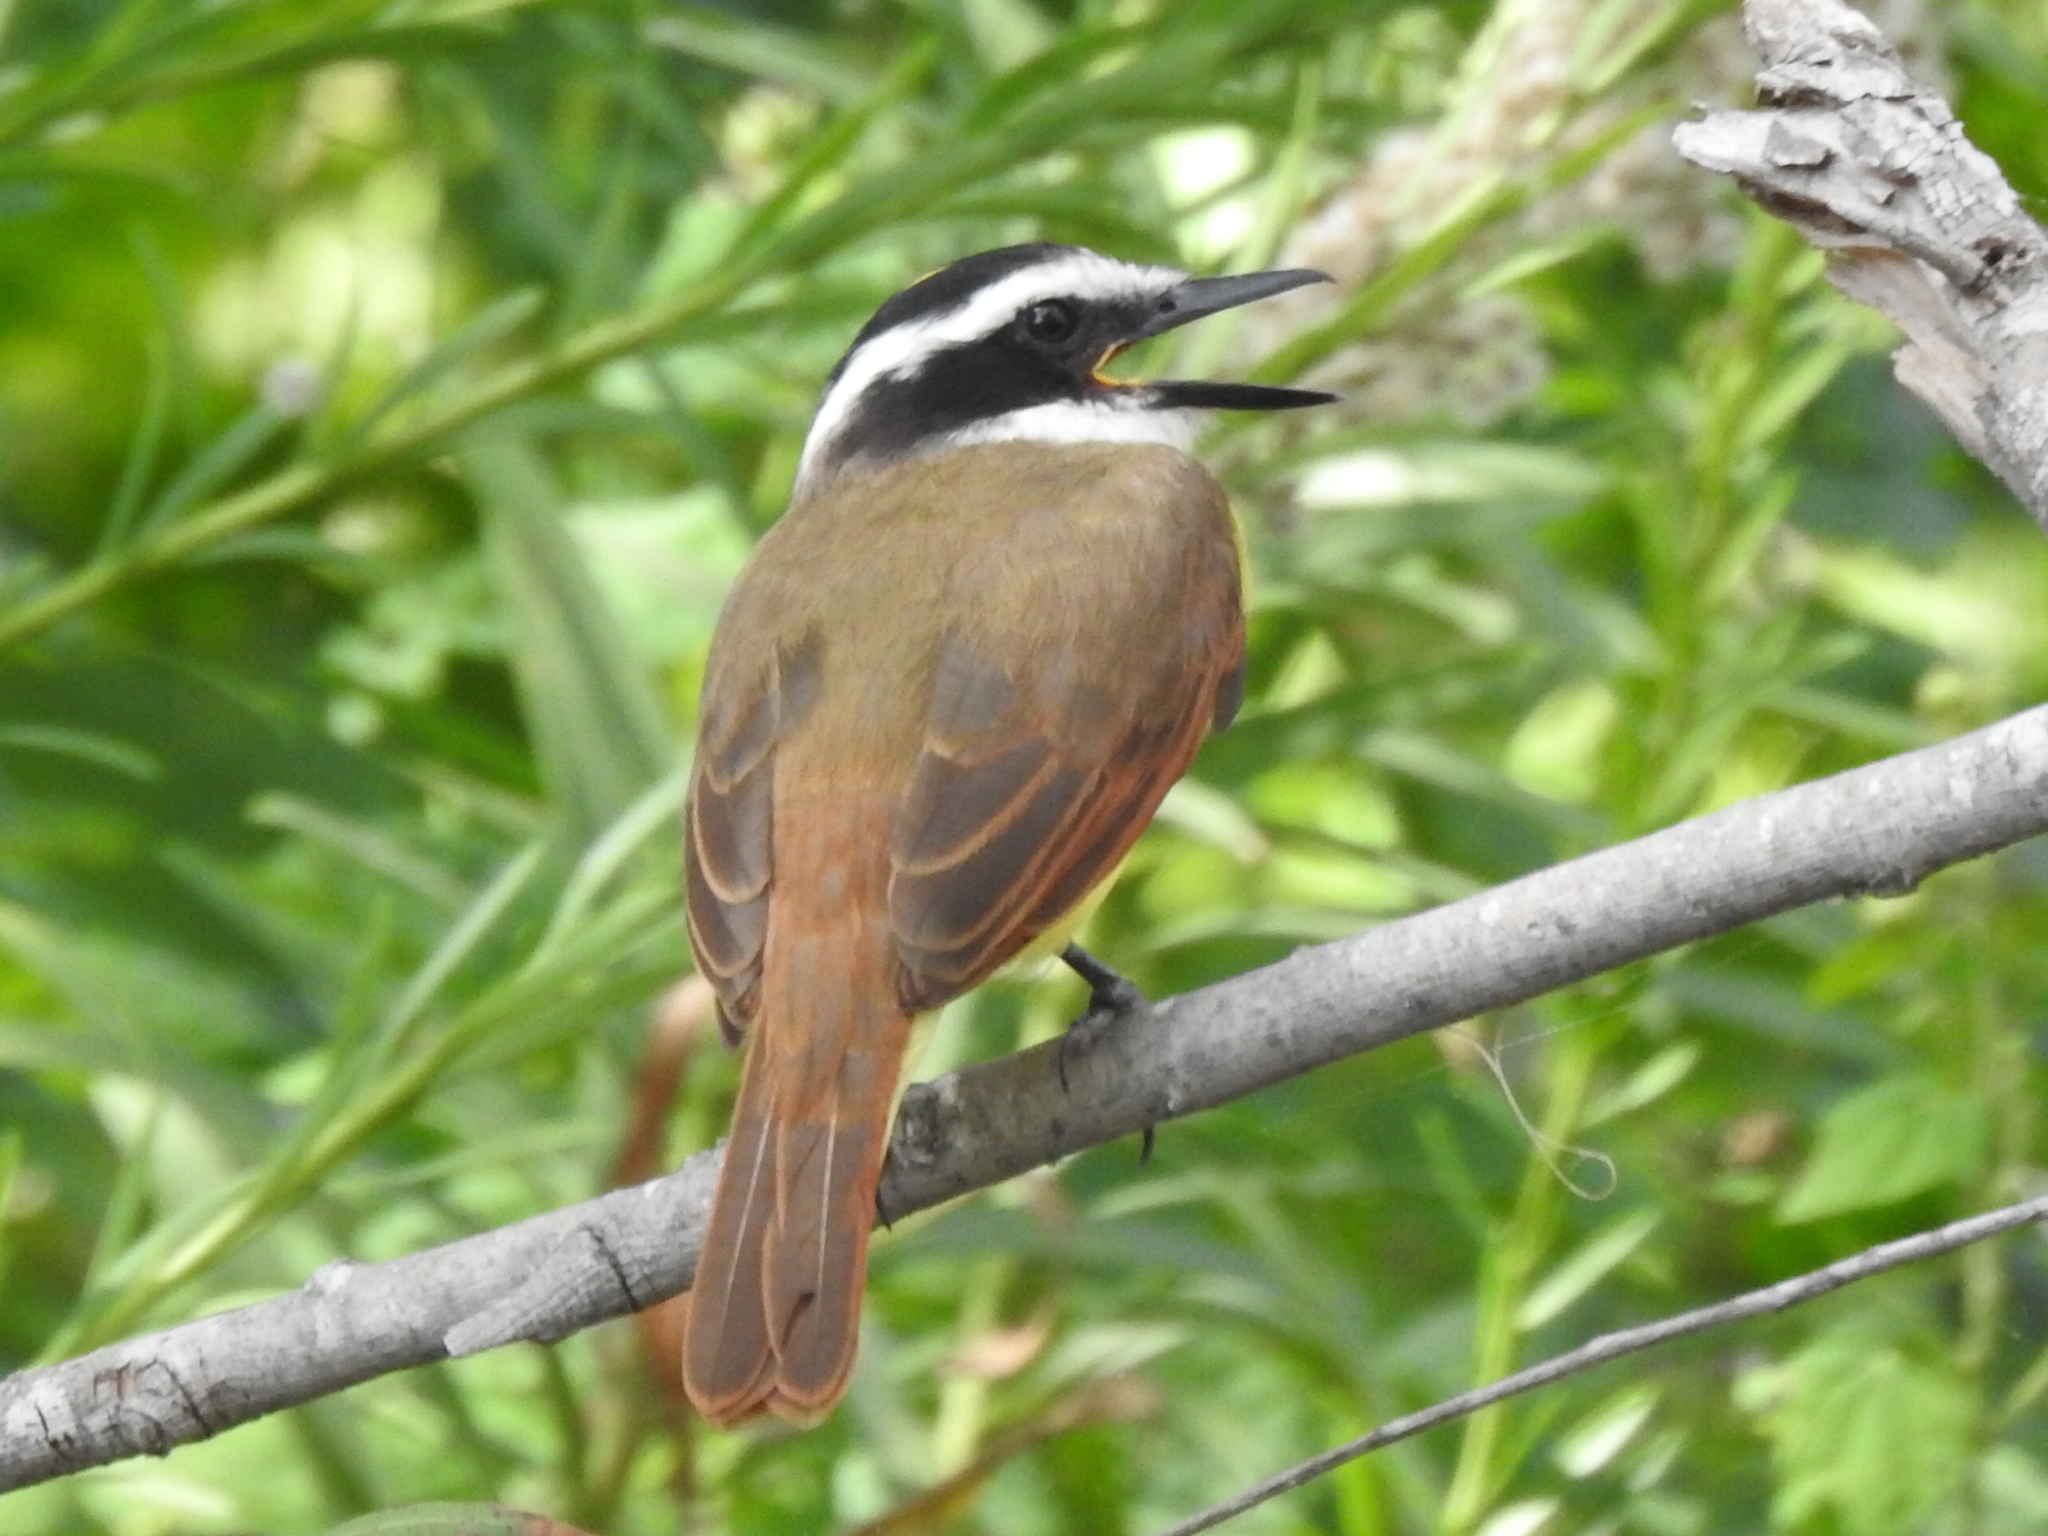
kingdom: Animalia
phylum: Chordata
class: Aves
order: Passeriformes
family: Tyrannidae
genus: Pitangus
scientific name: Pitangus sulphuratus
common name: Great kiskadee
